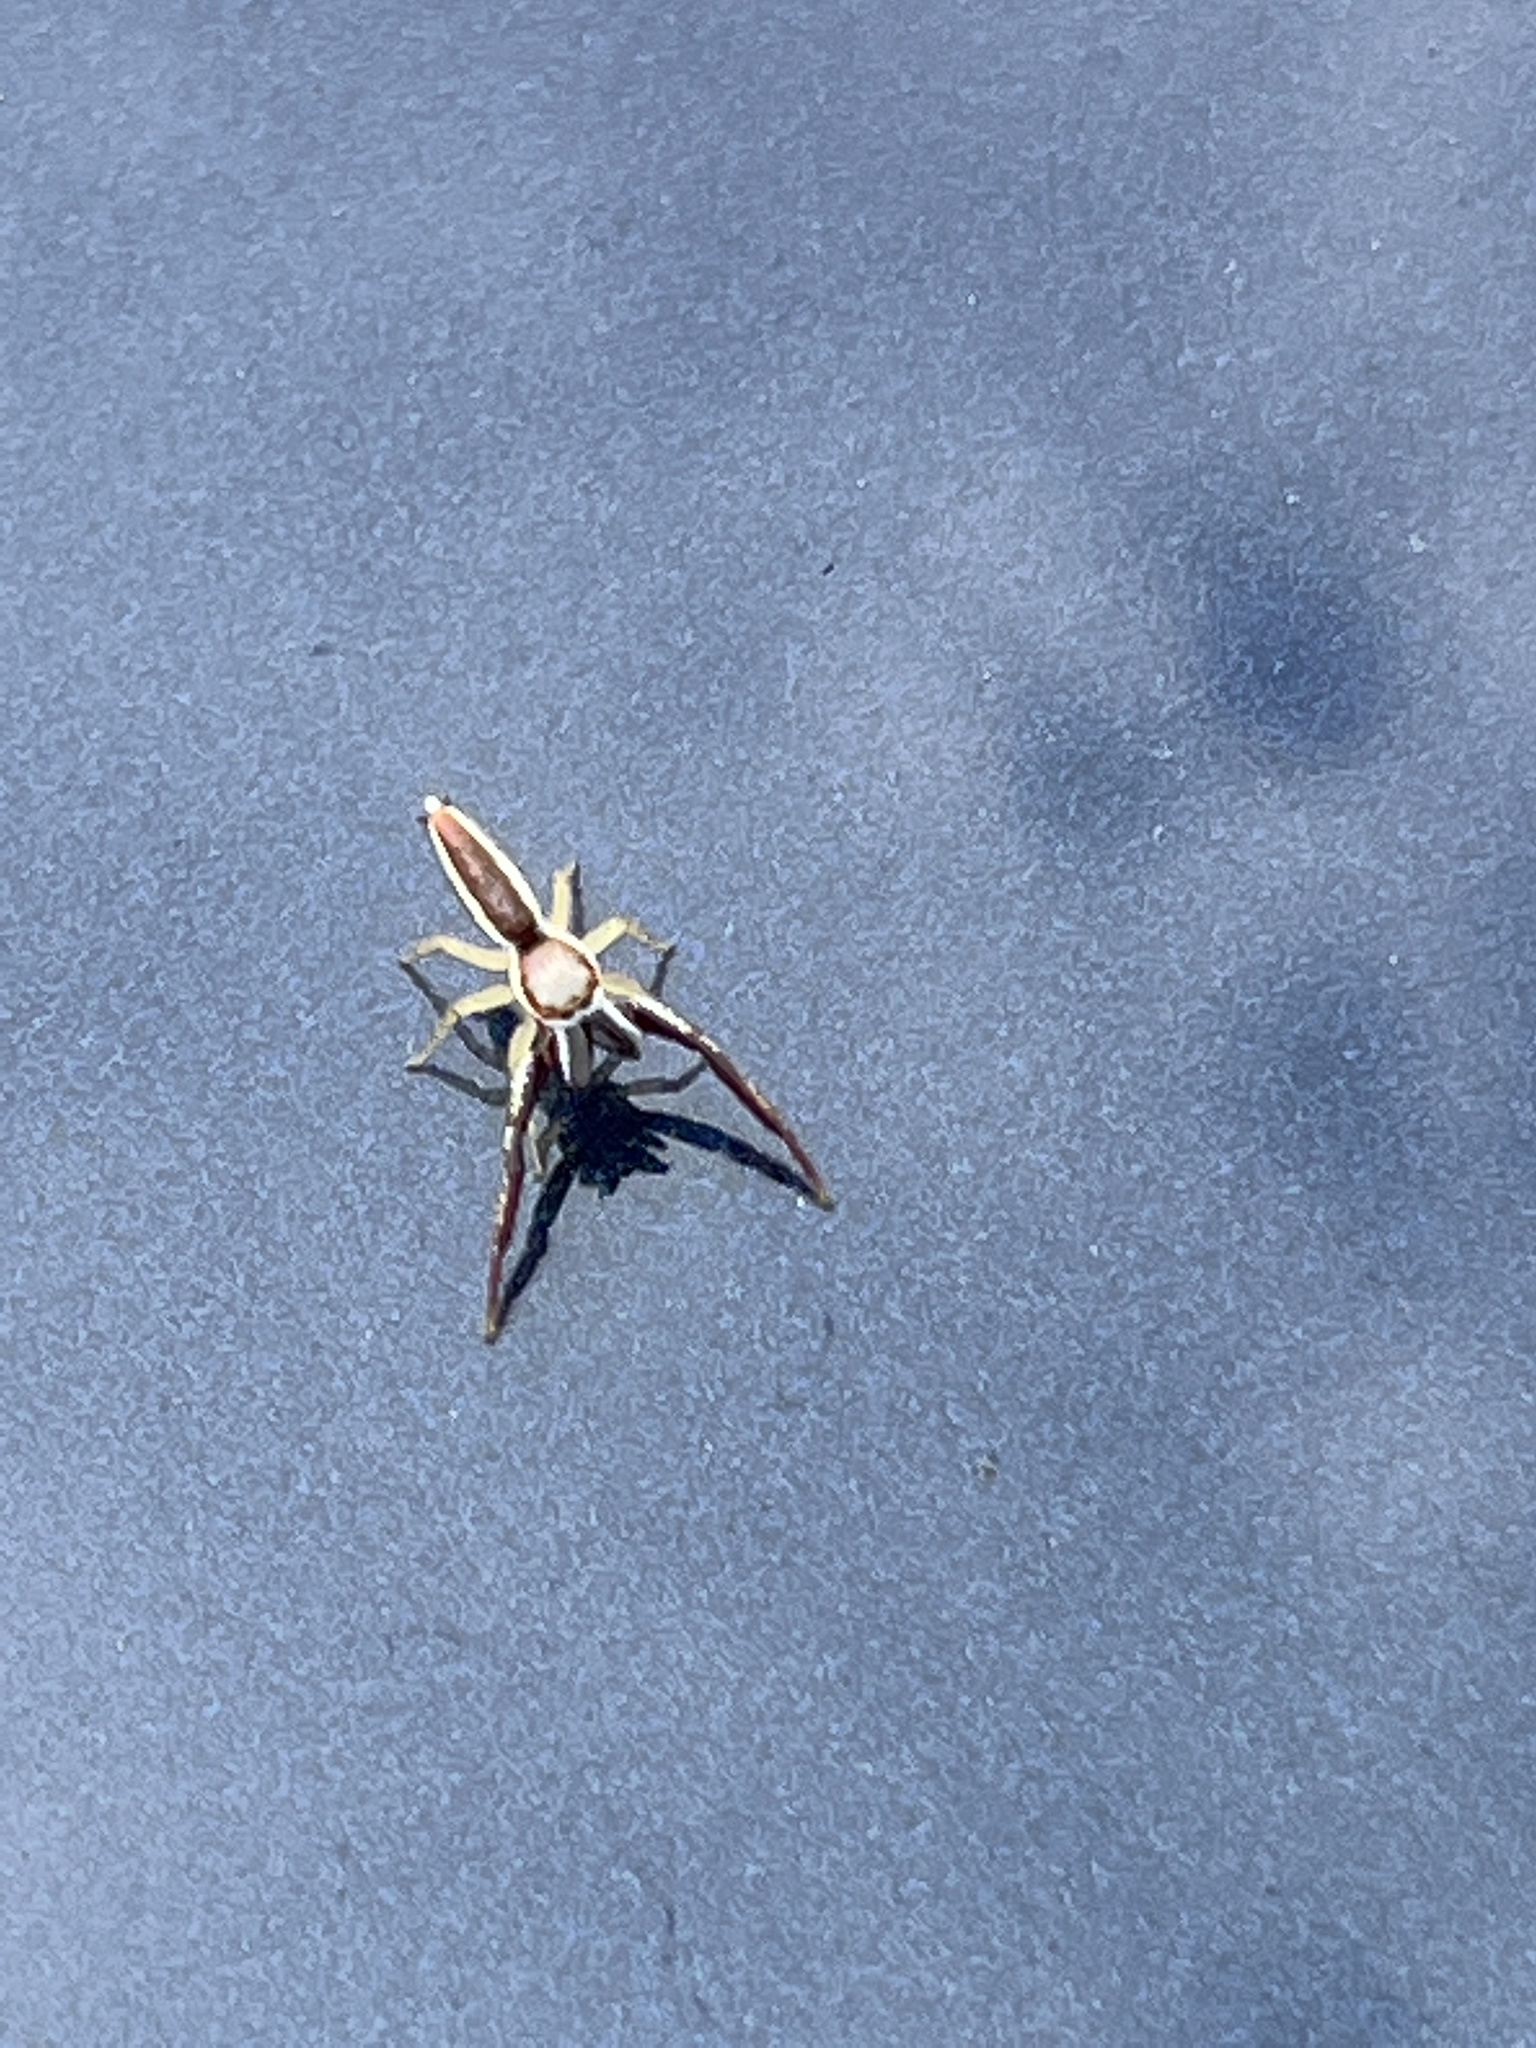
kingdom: Animalia
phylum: Arthropoda
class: Arachnida
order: Araneae
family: Salticidae
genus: Hentzia
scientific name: Hentzia palmarum
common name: Common hentz jumping spider
